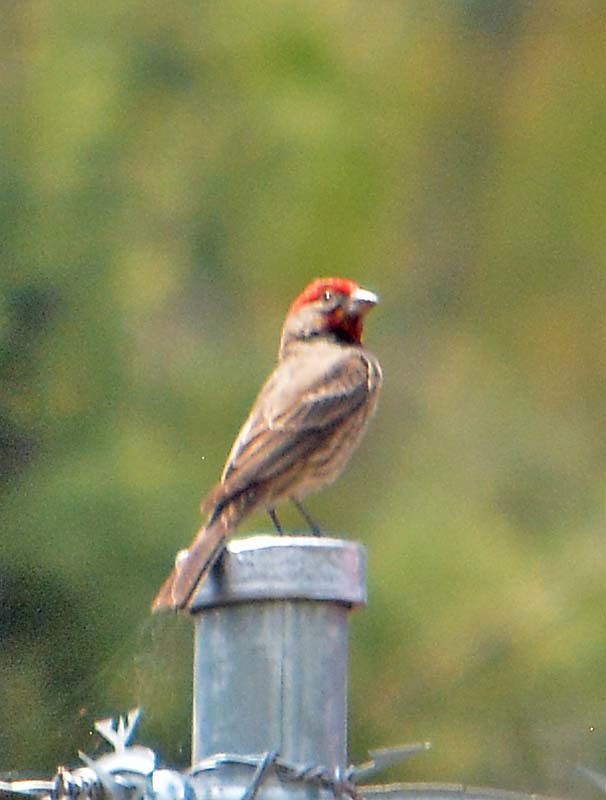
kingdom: Animalia
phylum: Chordata
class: Aves
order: Passeriformes
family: Fringillidae
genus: Haemorhous
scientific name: Haemorhous mexicanus
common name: House finch
